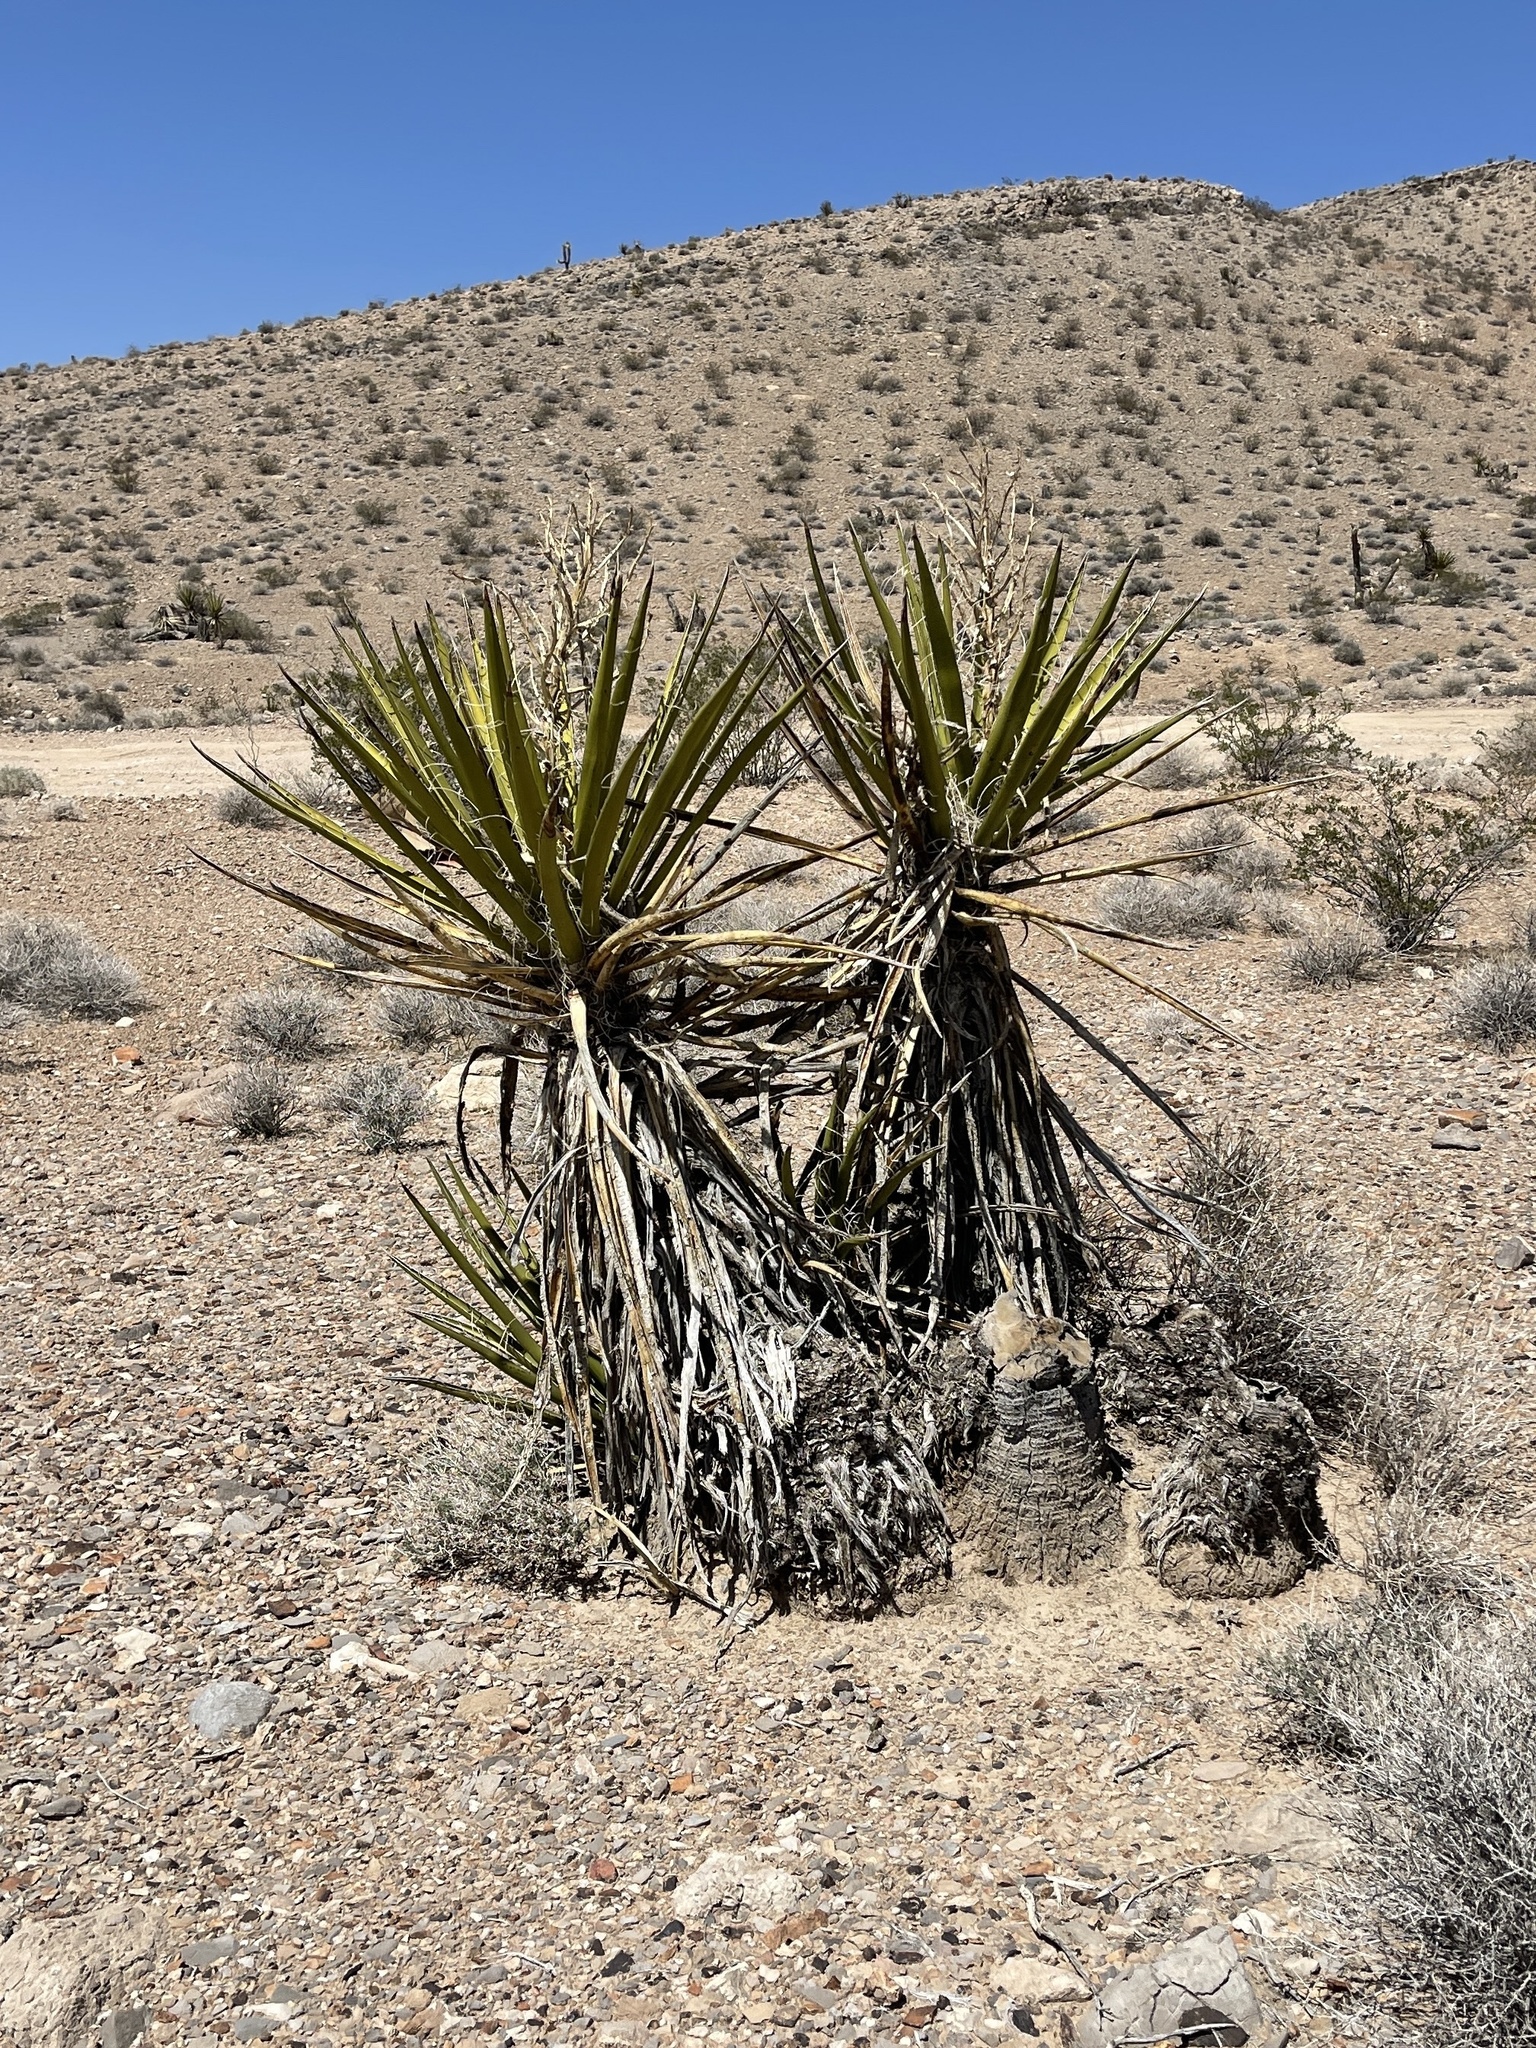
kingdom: Plantae
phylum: Tracheophyta
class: Liliopsida
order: Asparagales
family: Asparagaceae
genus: Yucca
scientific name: Yucca schidigera
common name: Mojave yucca
